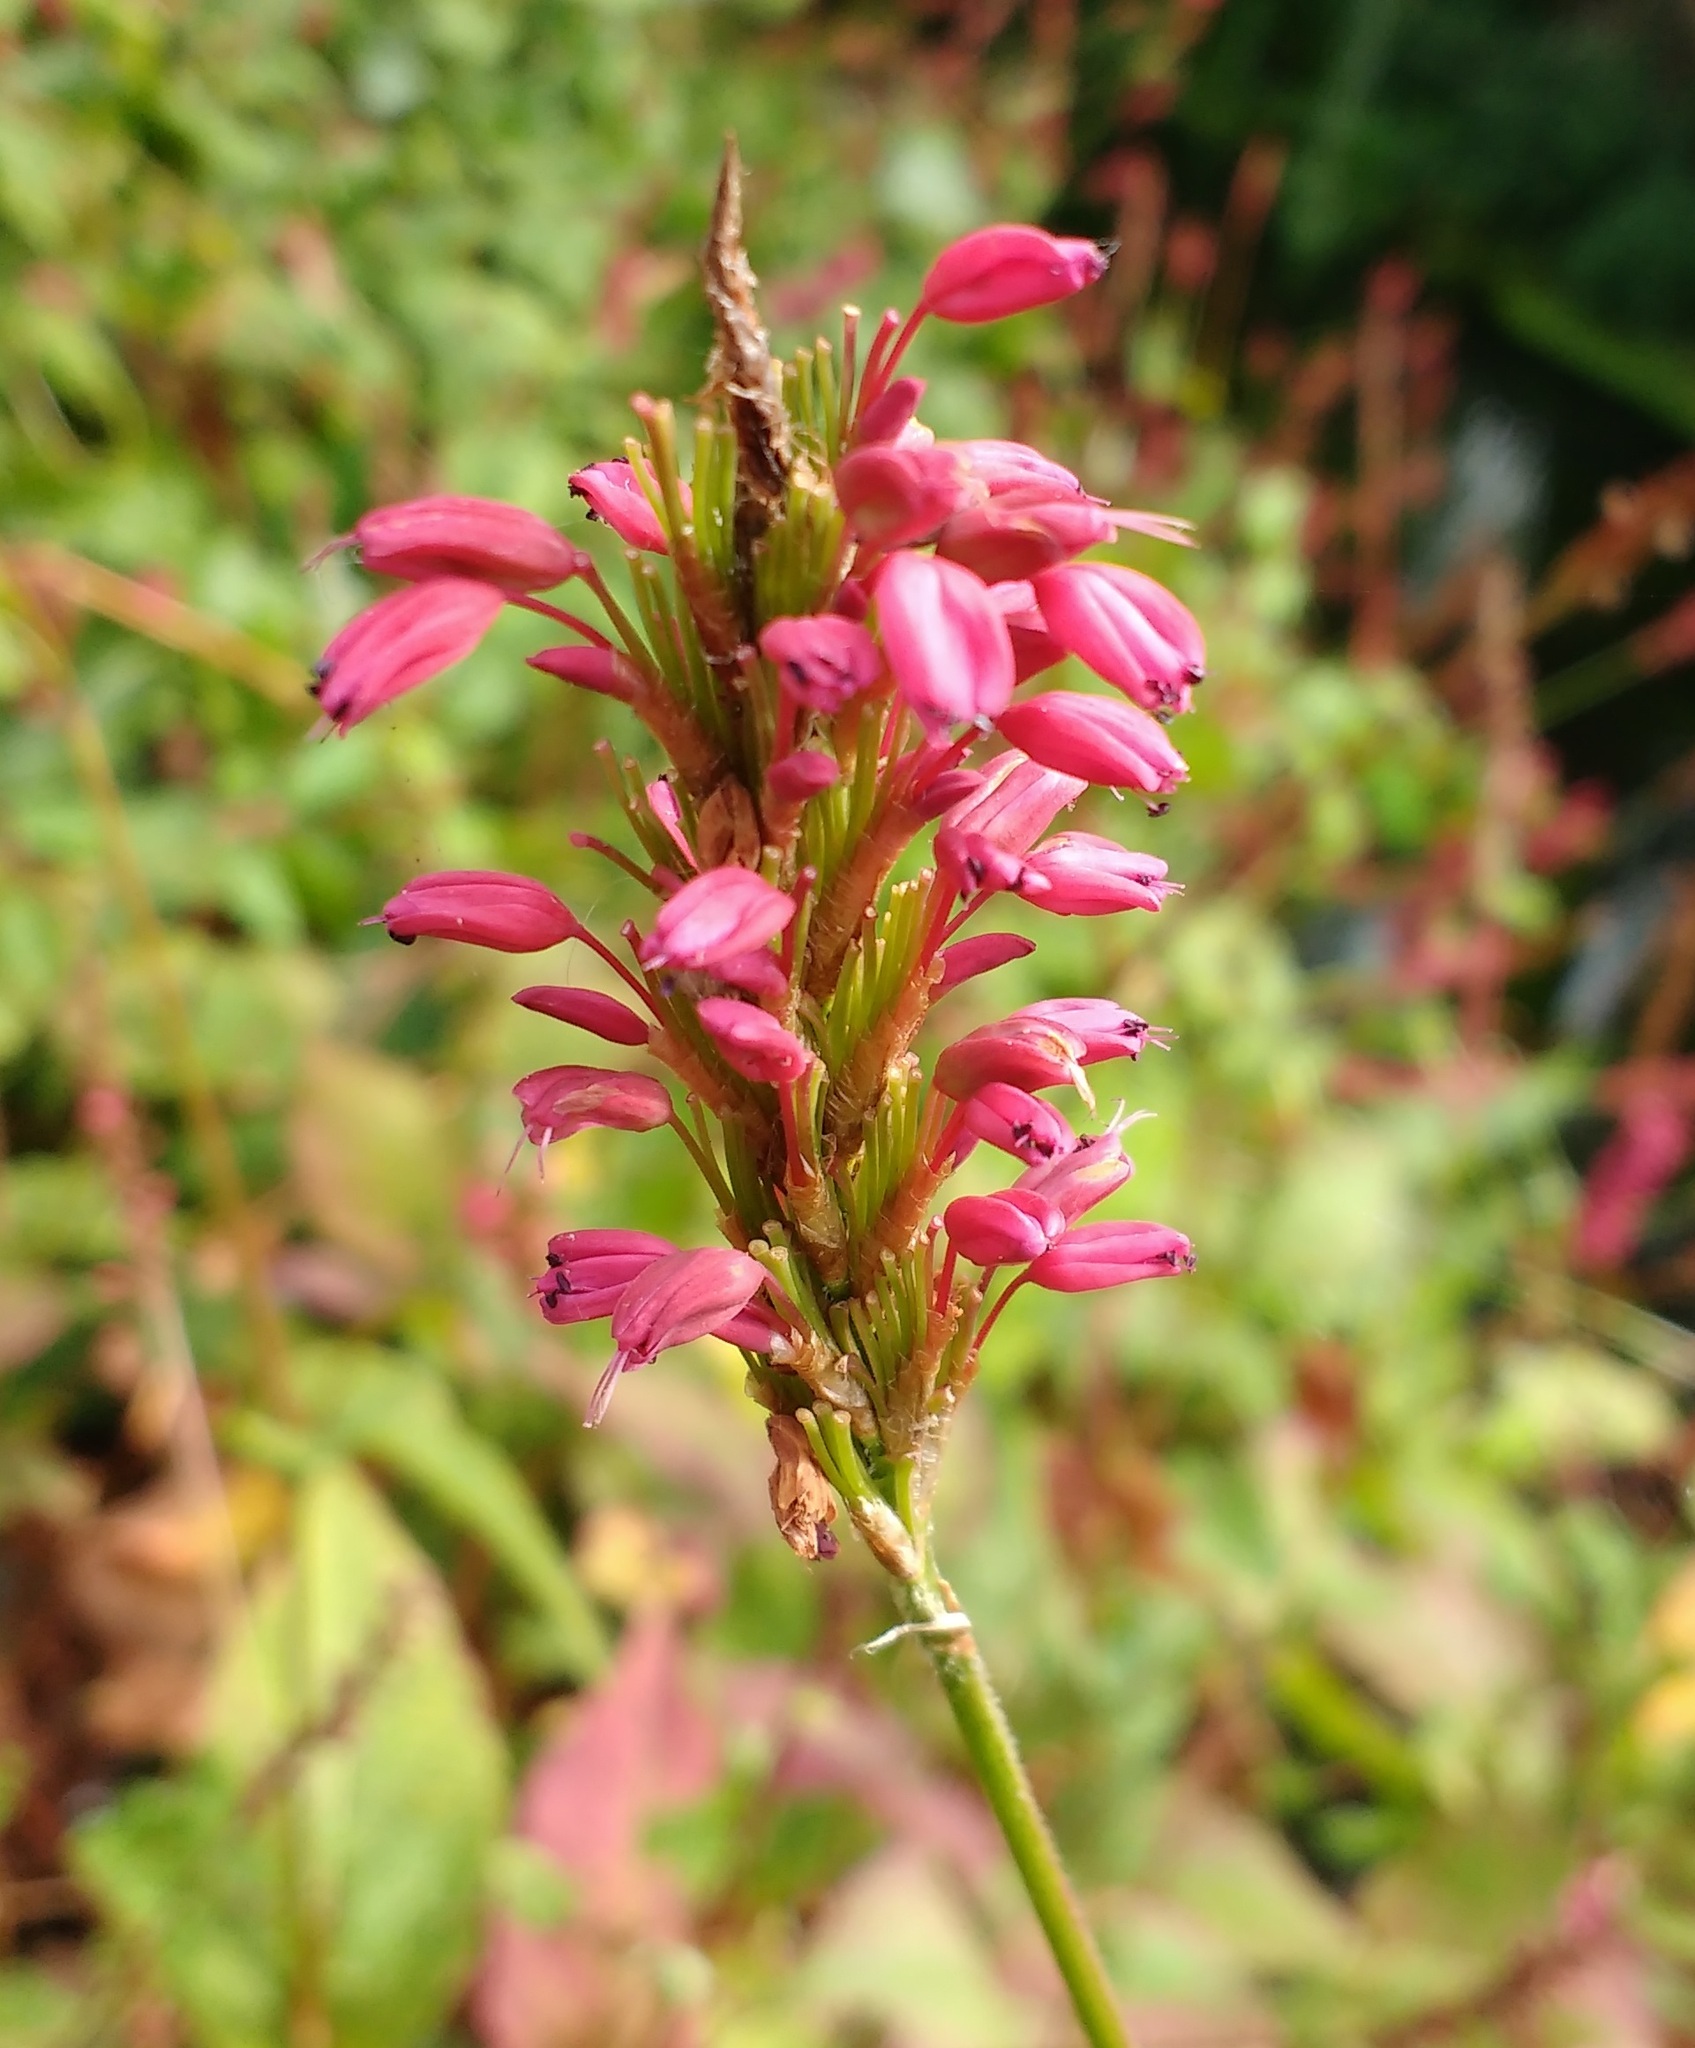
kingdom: Plantae
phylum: Tracheophyta
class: Magnoliopsida
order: Caryophyllales
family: Polygonaceae
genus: Bistorta
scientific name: Bistorta amplexicaulis
